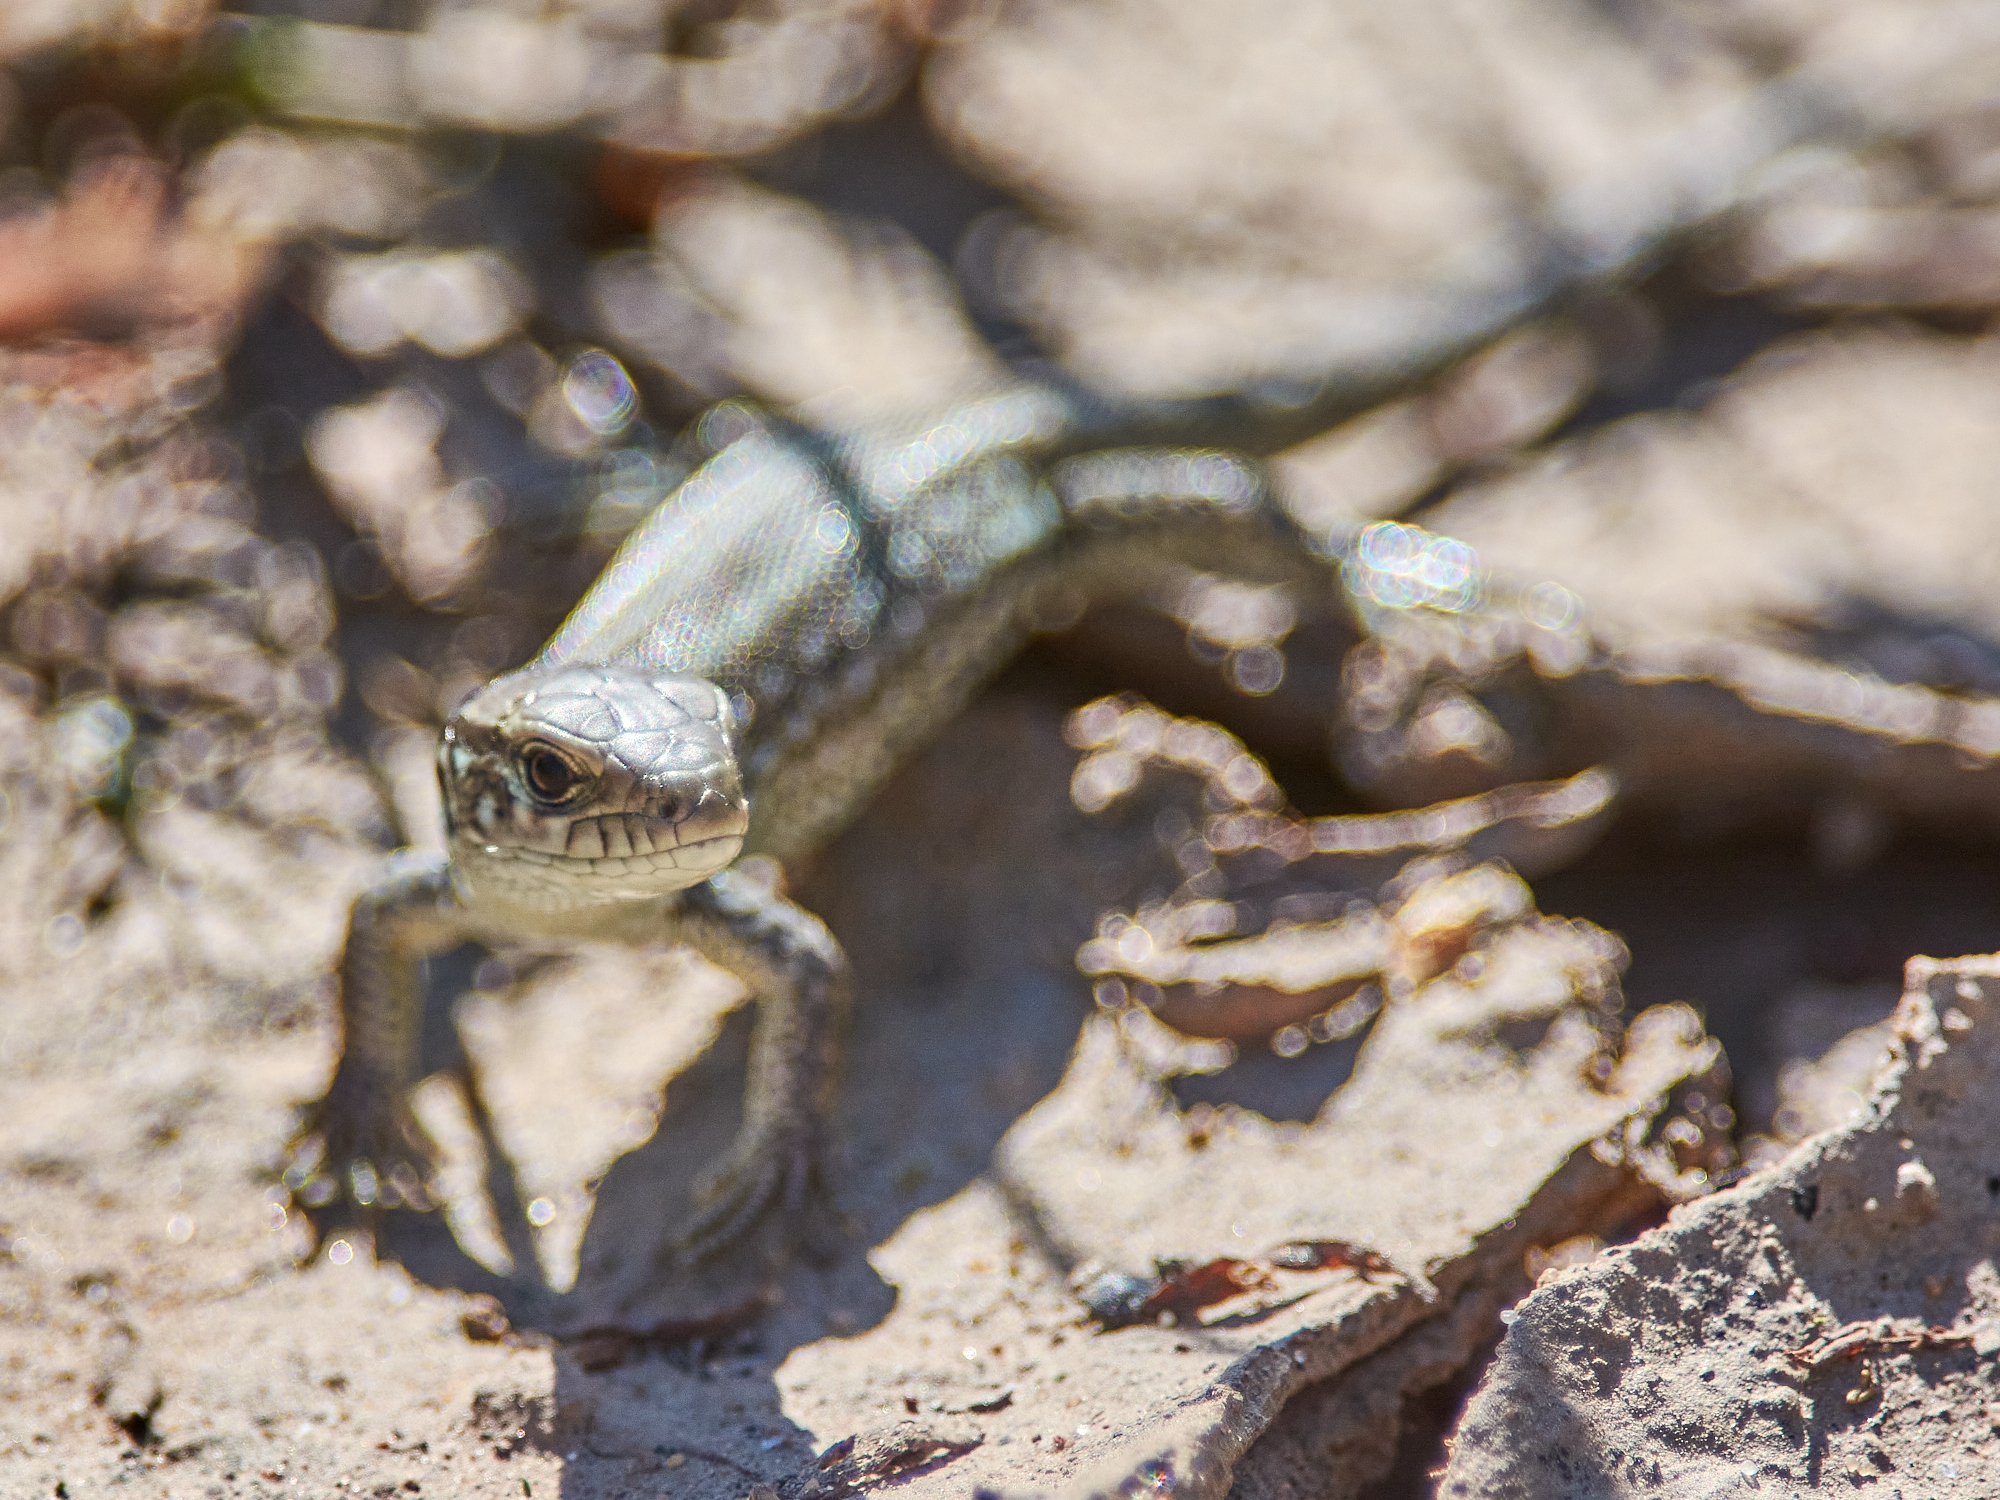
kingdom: Animalia
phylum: Chordata
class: Squamata
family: Lacertidae
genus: Lacerta
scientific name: Lacerta agilis
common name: Sand lizard
